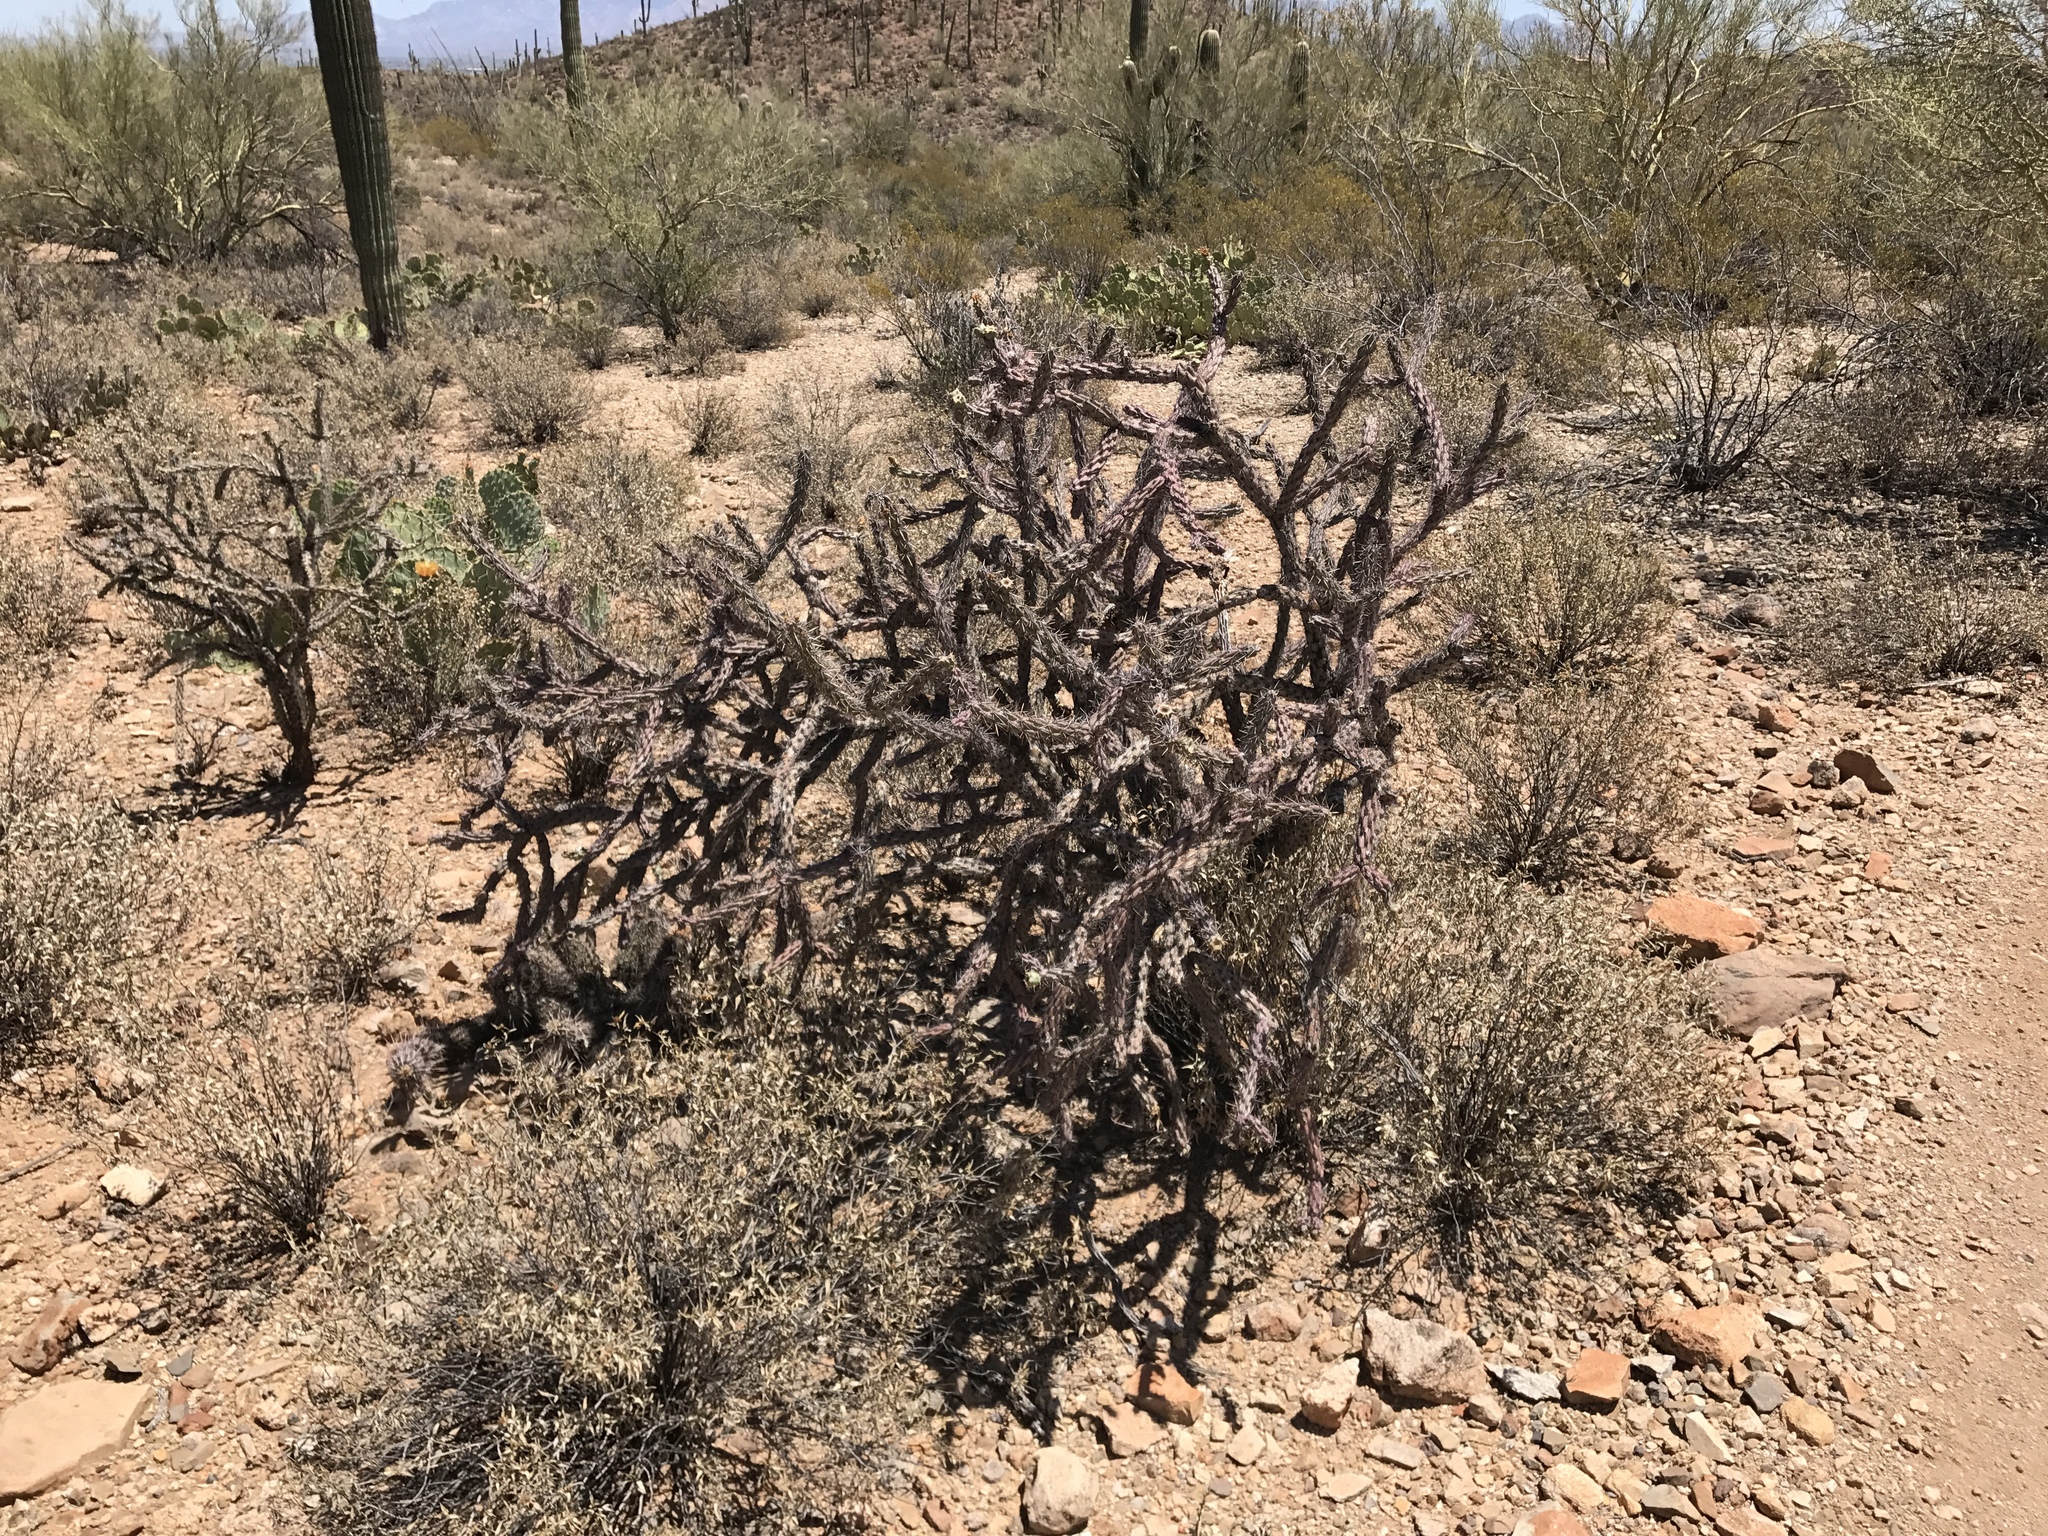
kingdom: Plantae
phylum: Tracheophyta
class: Magnoliopsida
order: Caryophyllales
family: Cactaceae
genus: Cylindropuntia
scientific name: Cylindropuntia thurberi
